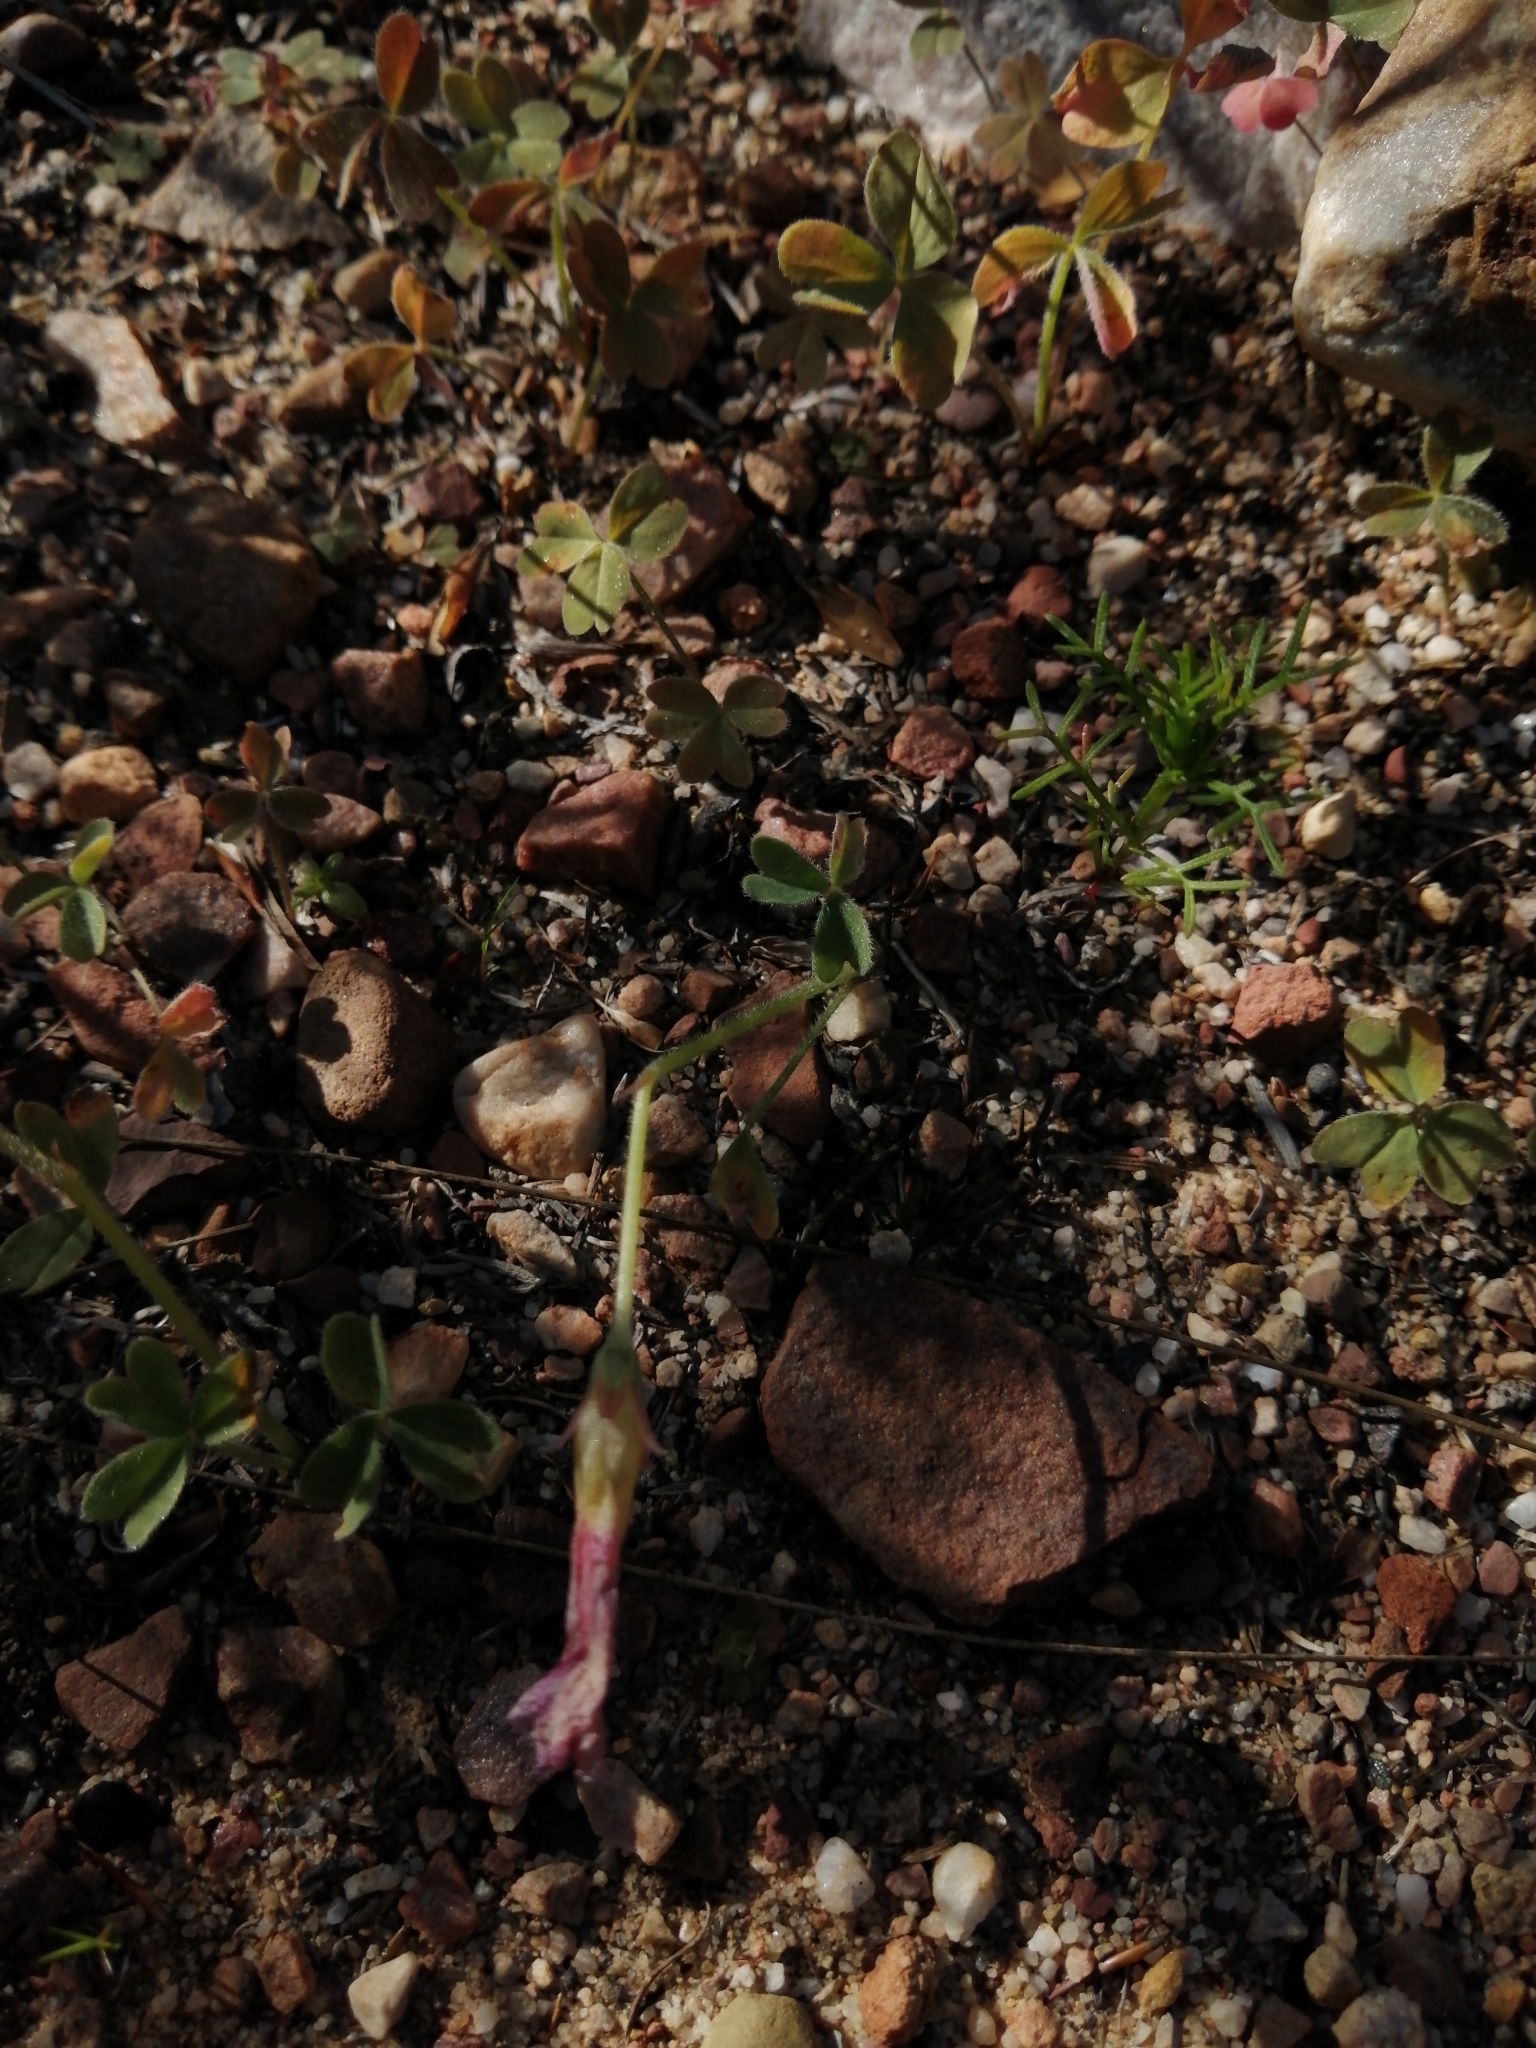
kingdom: Plantae
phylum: Tracheophyta
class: Magnoliopsida
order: Oxalidales
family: Oxalidaceae
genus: Oxalis
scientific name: Oxalis obtusa
